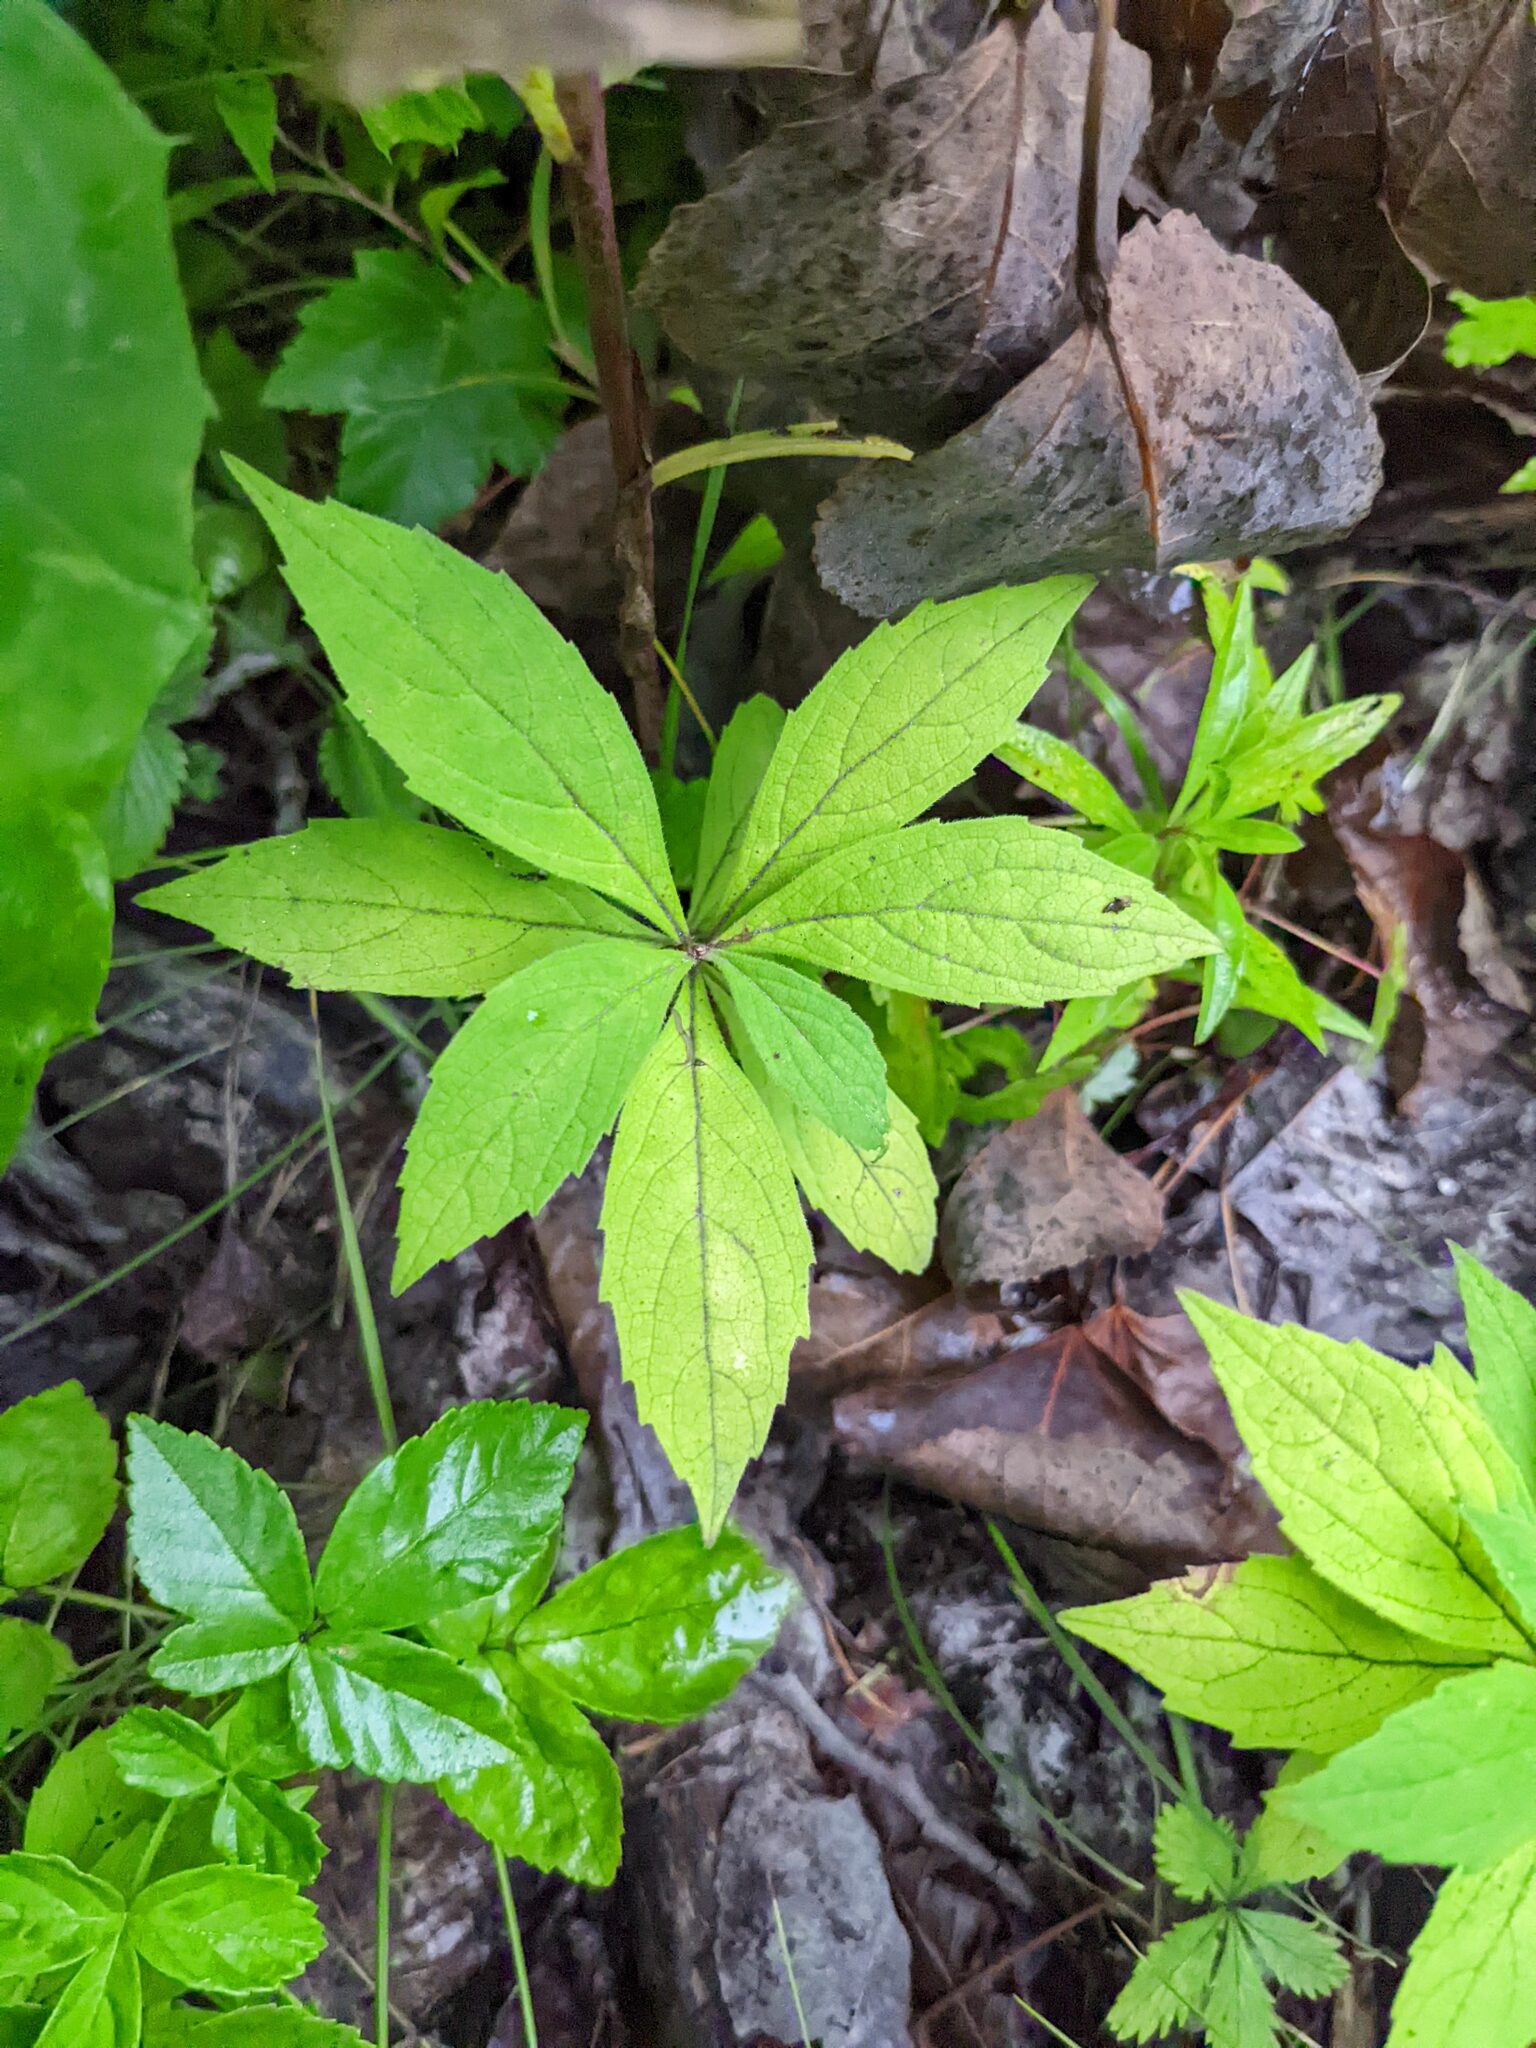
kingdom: Plantae
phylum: Tracheophyta
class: Magnoliopsida
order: Asterales
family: Asteraceae
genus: Oclemena
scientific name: Oclemena acuminata
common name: Mountain aster
